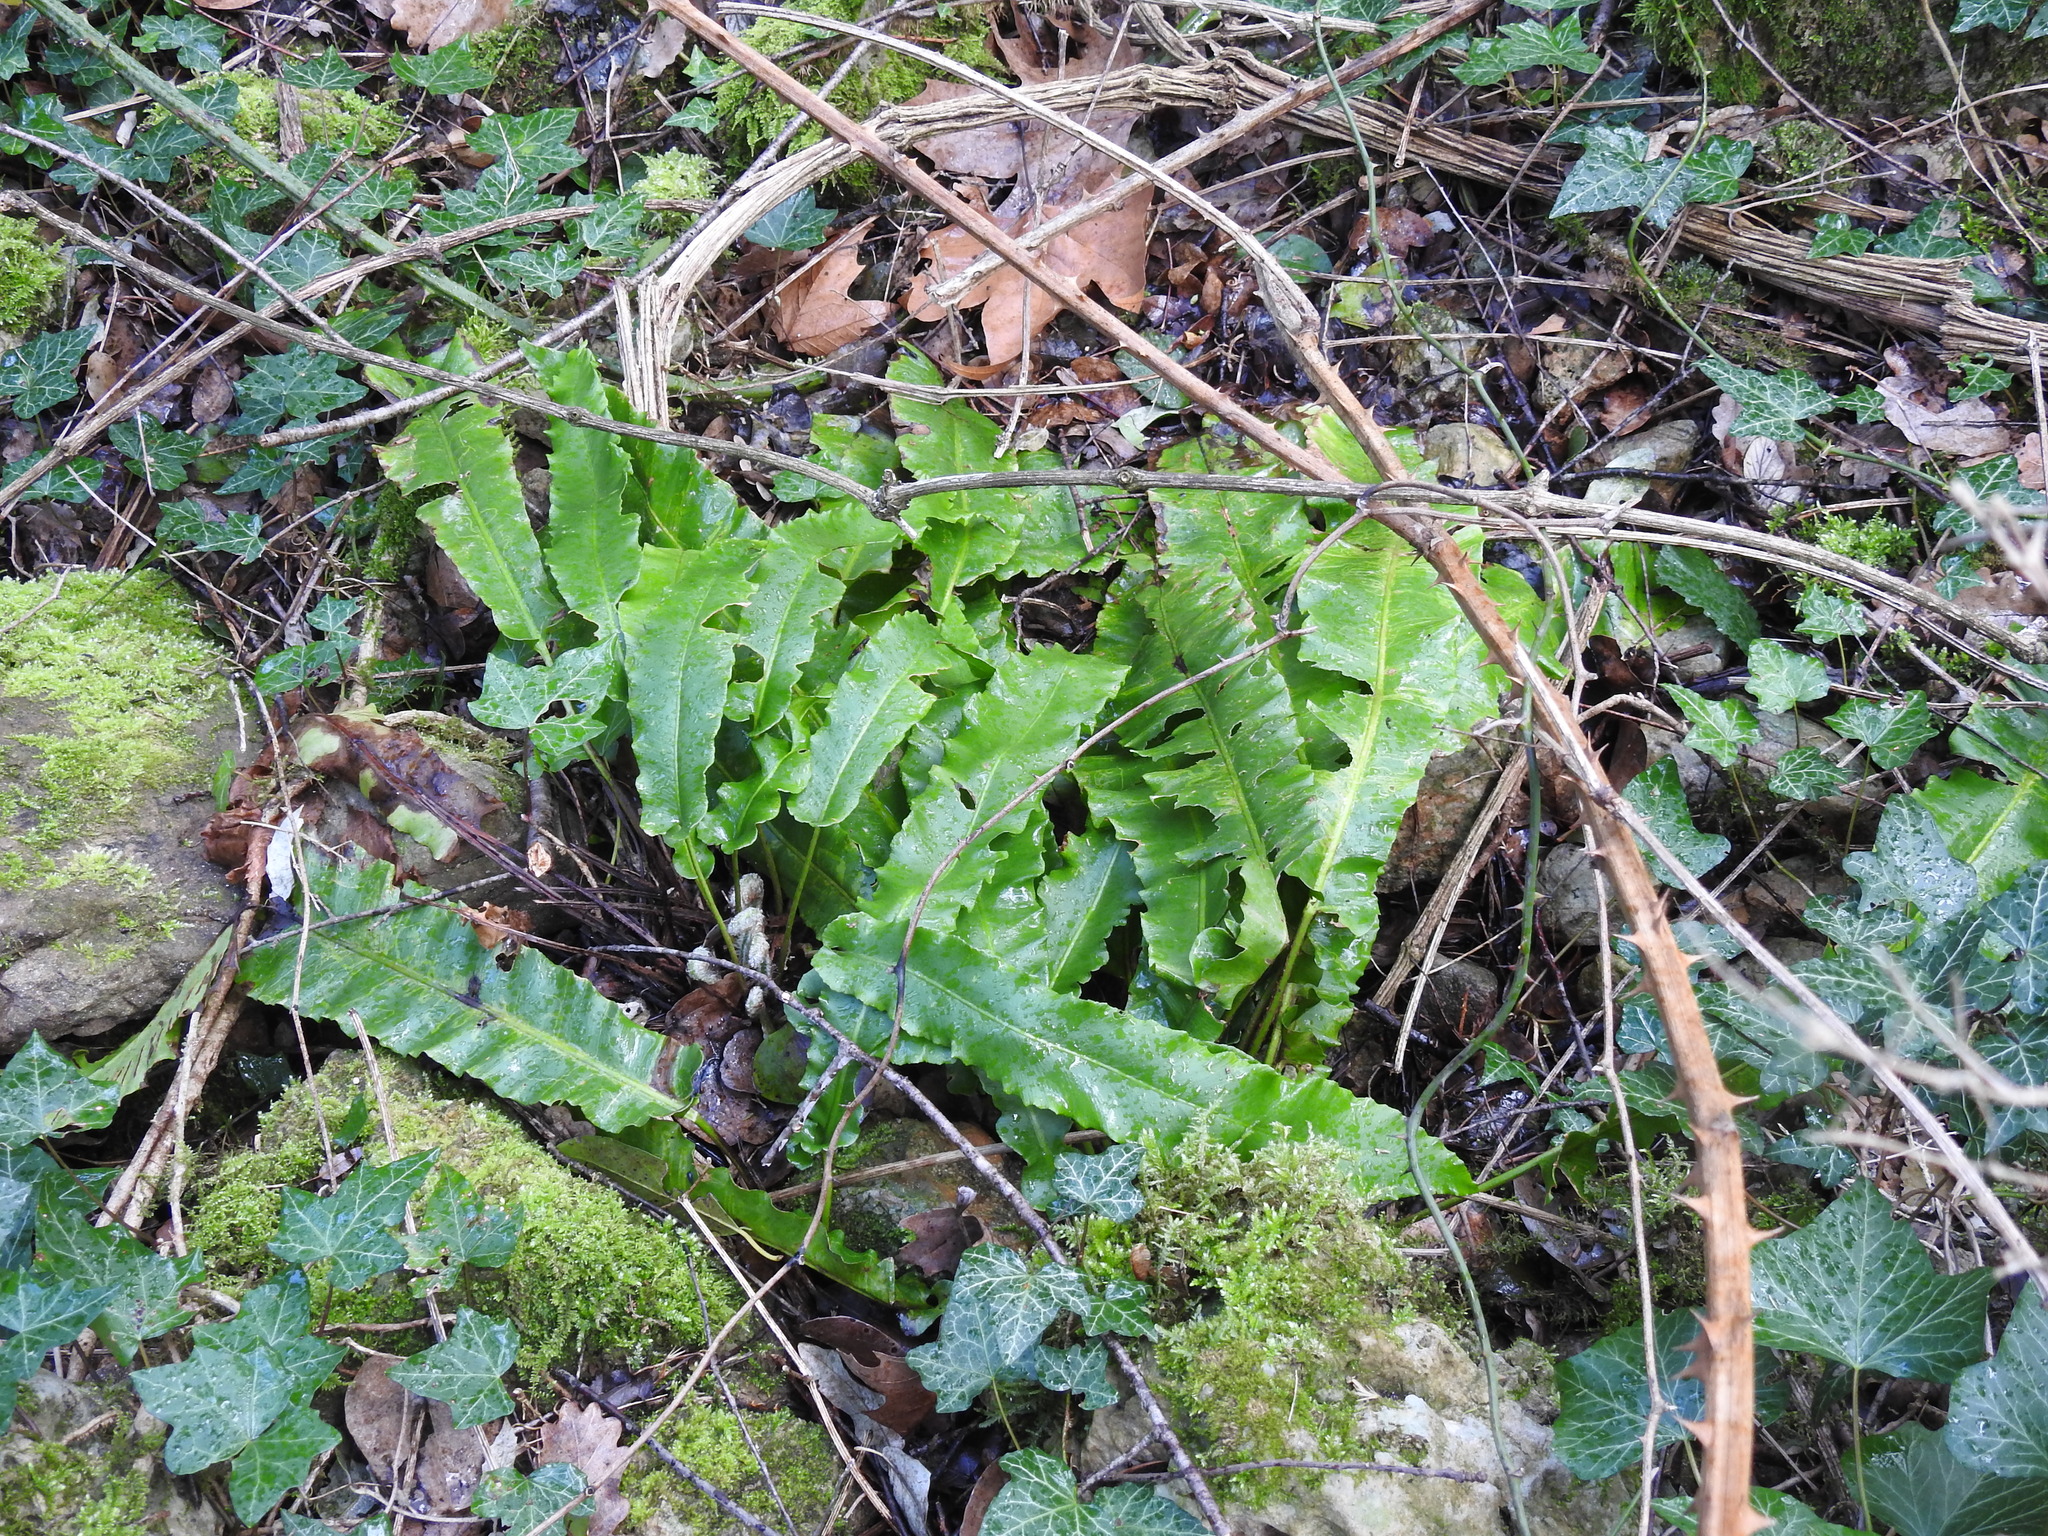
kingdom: Plantae
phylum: Tracheophyta
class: Polypodiopsida
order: Polypodiales
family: Aspleniaceae
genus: Asplenium
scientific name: Asplenium scolopendrium
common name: Hart's-tongue fern
